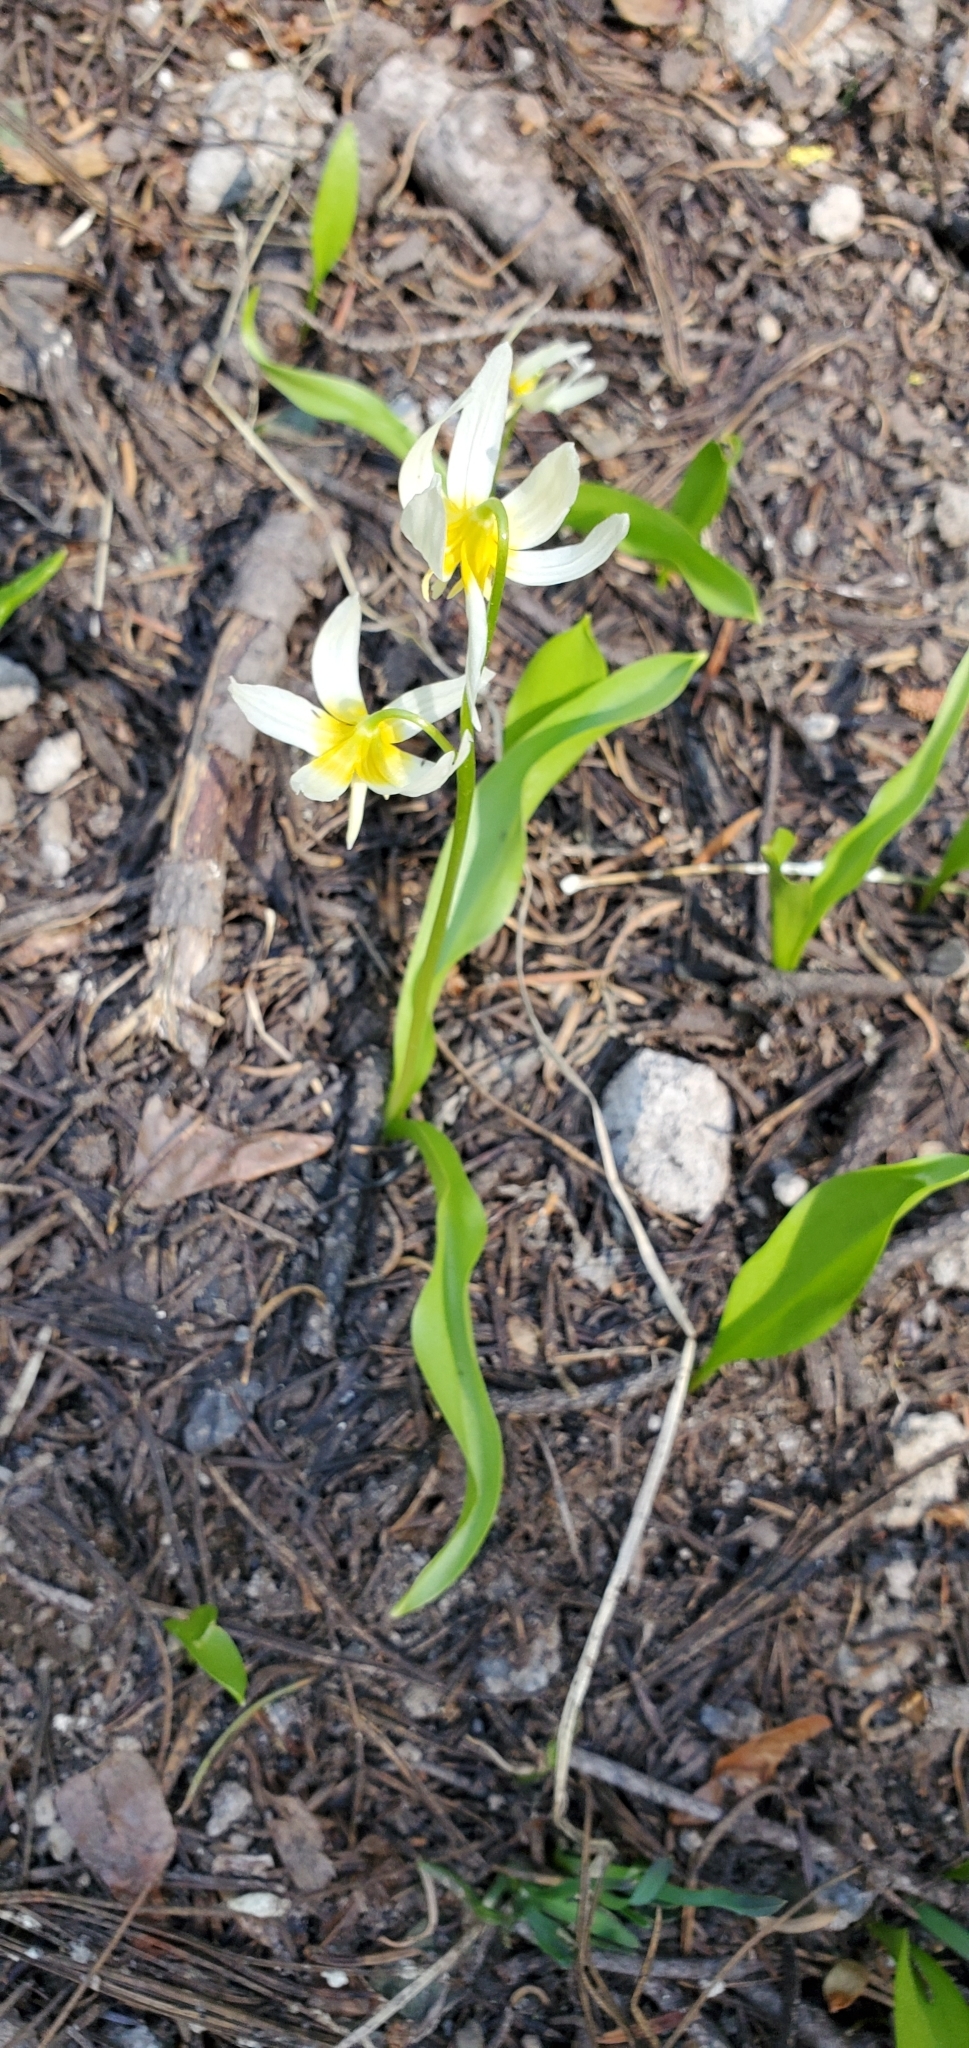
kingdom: Plantae
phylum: Tracheophyta
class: Liliopsida
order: Liliales
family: Liliaceae
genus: Erythronium
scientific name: Erythronium purpurascens
